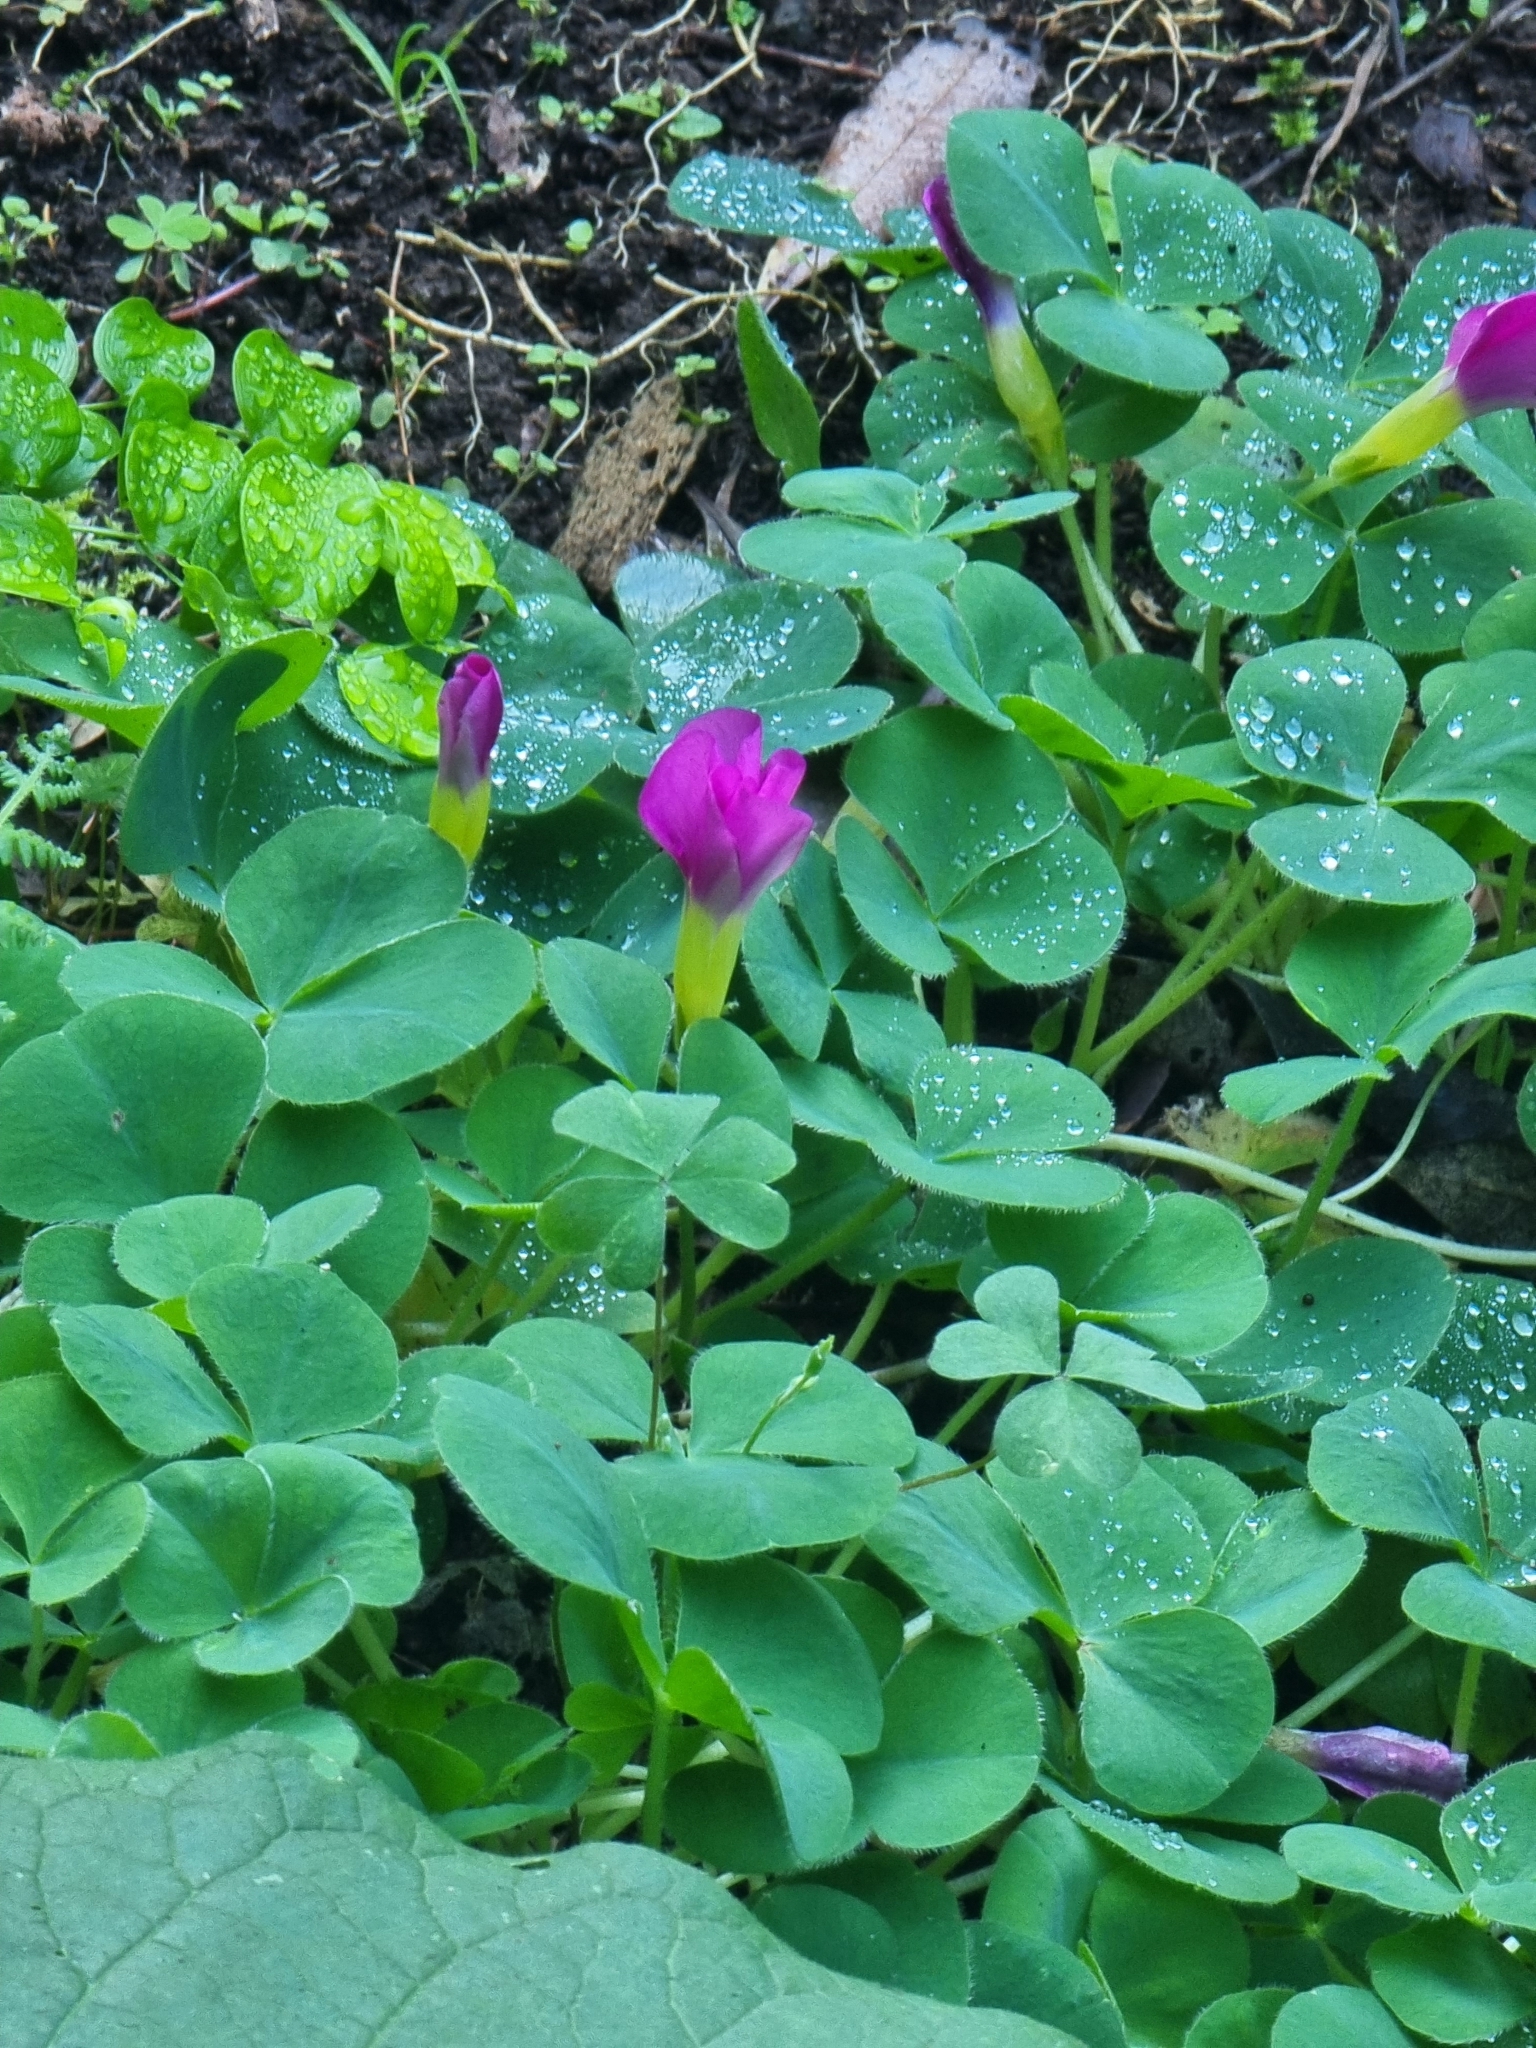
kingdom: Plantae
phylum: Tracheophyta
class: Magnoliopsida
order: Oxalidales
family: Oxalidaceae
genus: Oxalis
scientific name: Oxalis purpurea
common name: Purple woodsorrel
